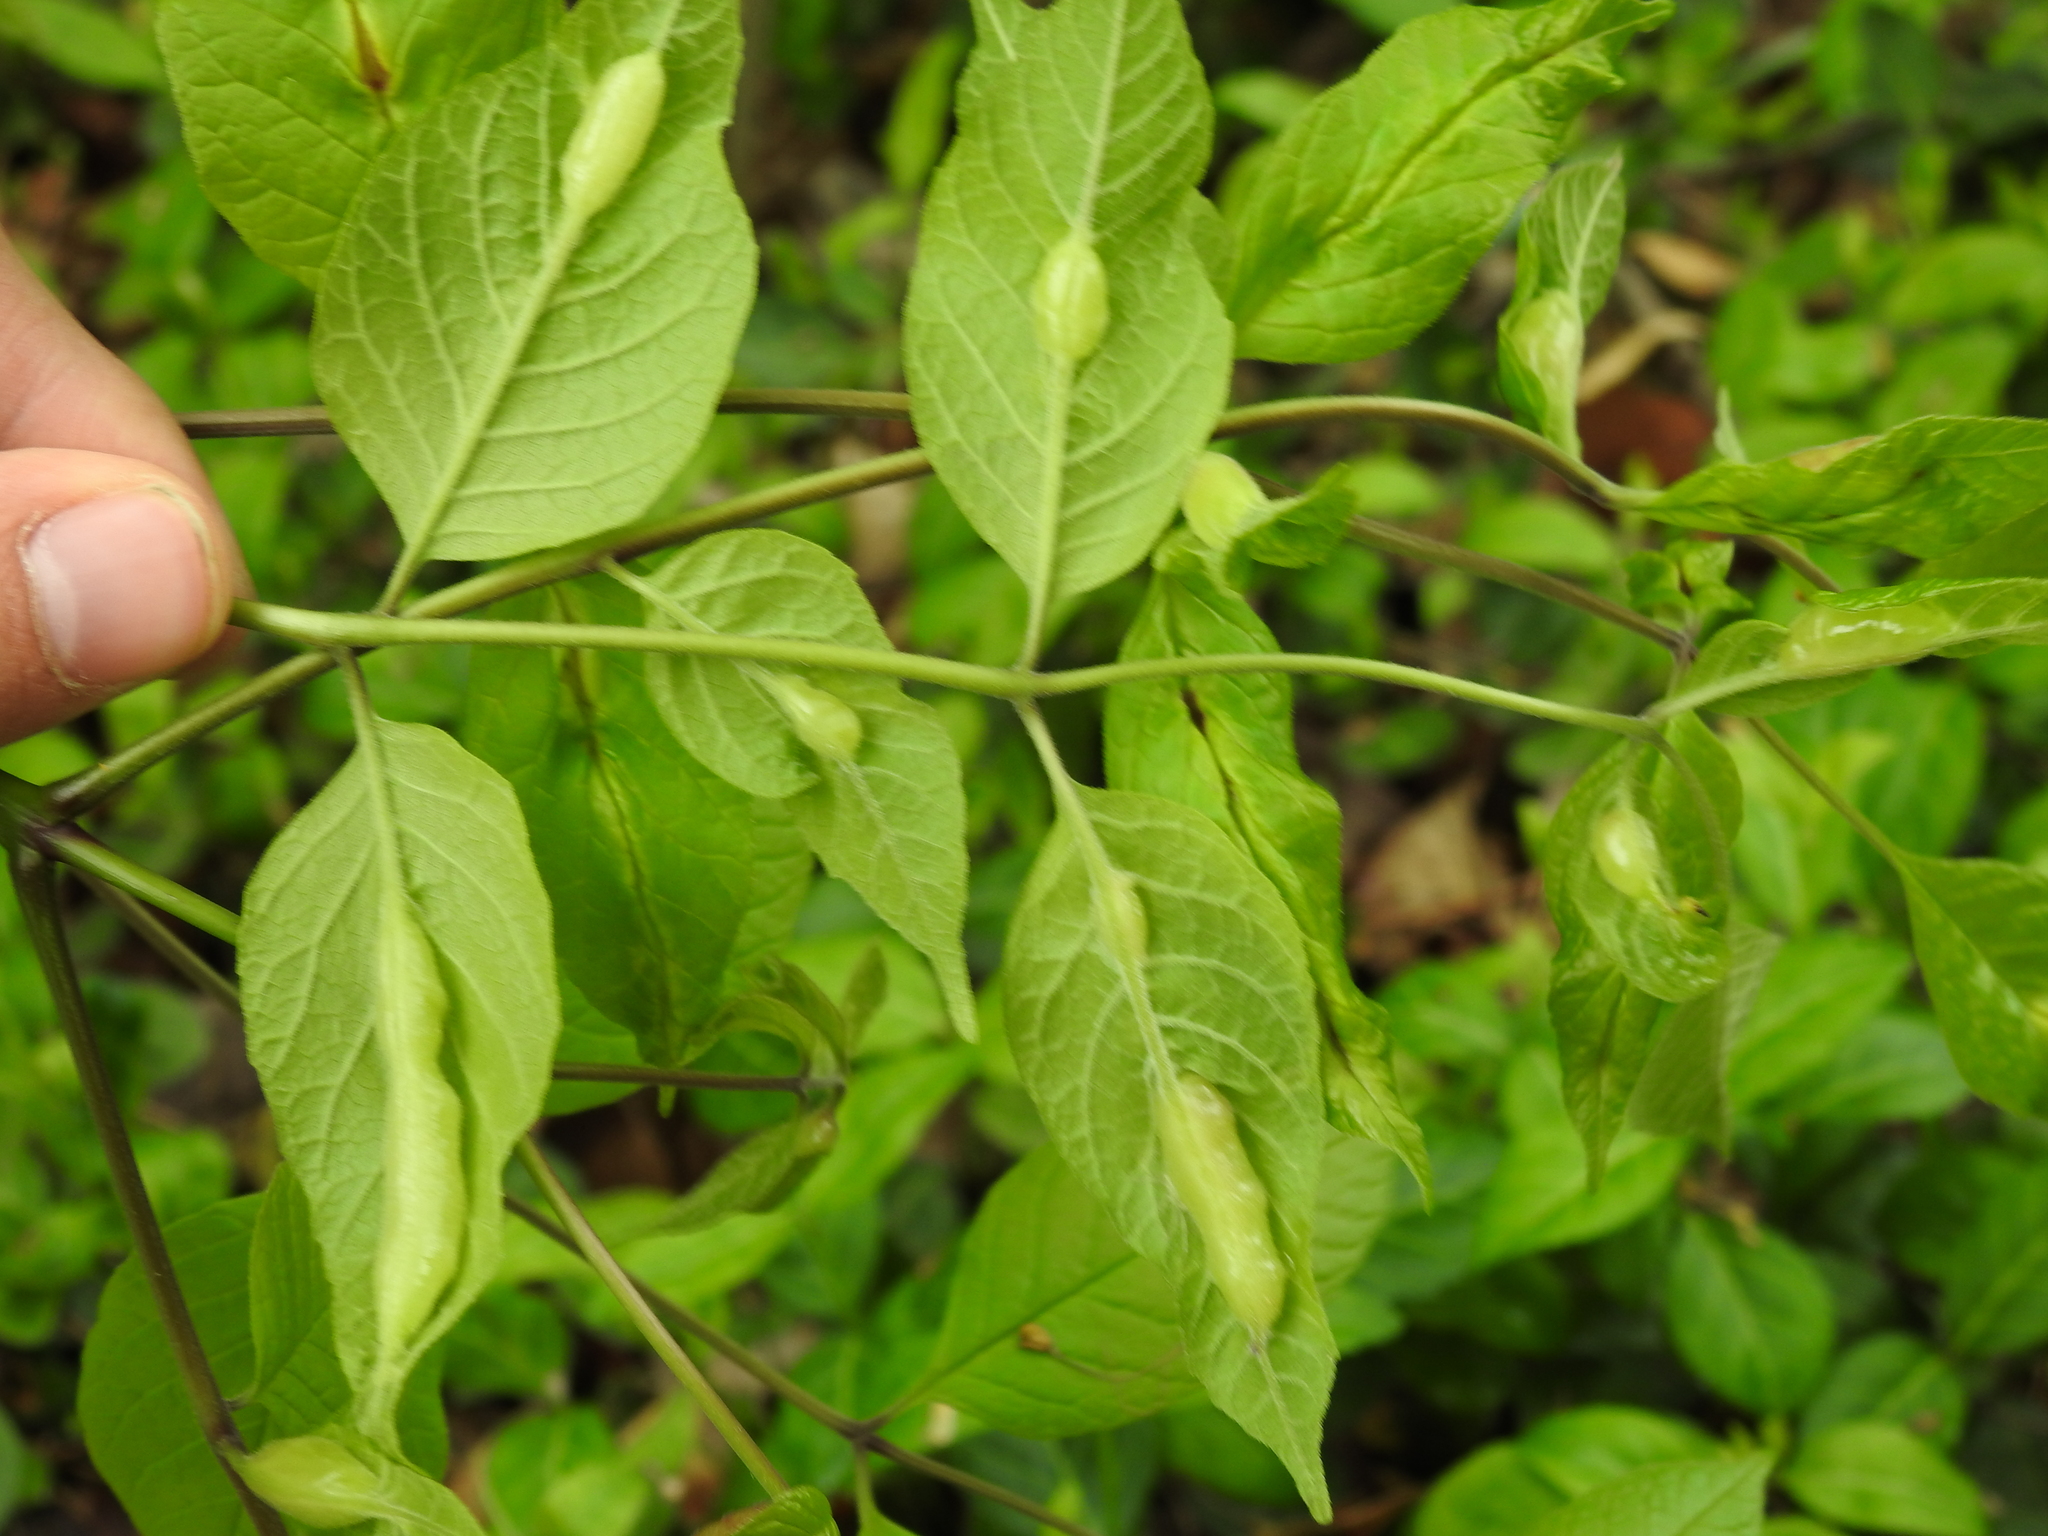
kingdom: Animalia
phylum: Arthropoda
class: Insecta
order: Diptera
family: Cecidomyiidae
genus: Dasineura
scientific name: Dasineura tumidosae
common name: Ash petiole gall midge
